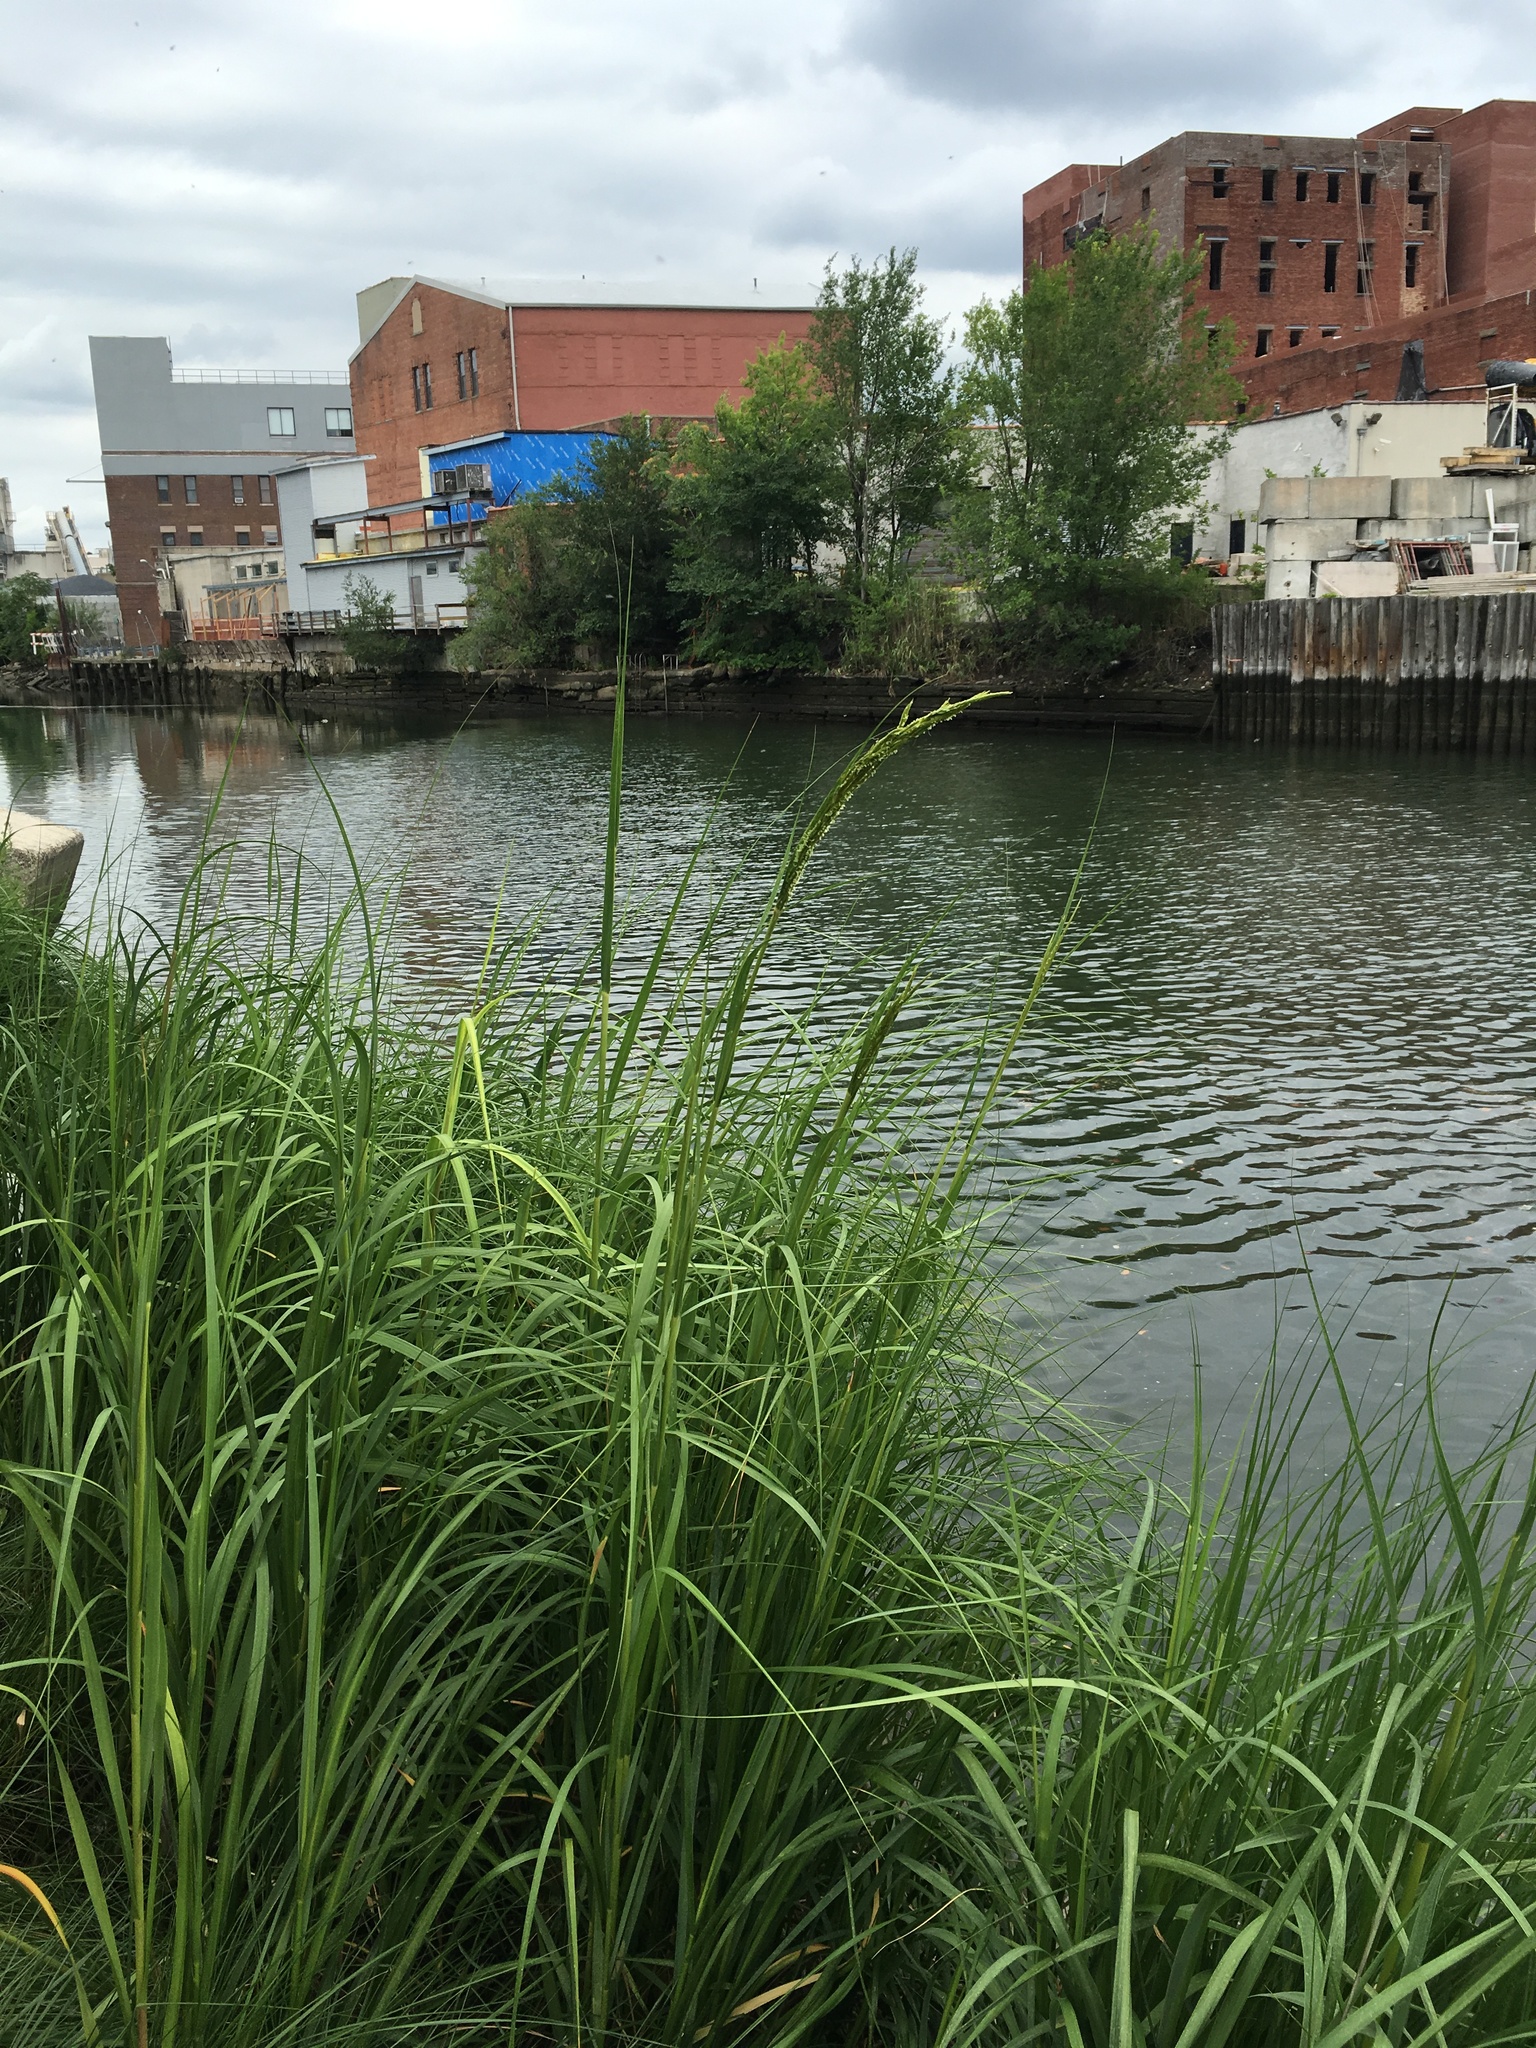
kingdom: Plantae
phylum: Tracheophyta
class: Liliopsida
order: Poales
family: Poaceae
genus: Sporobolus
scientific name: Sporobolus alterniflorus
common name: Atlantic cordgrass
